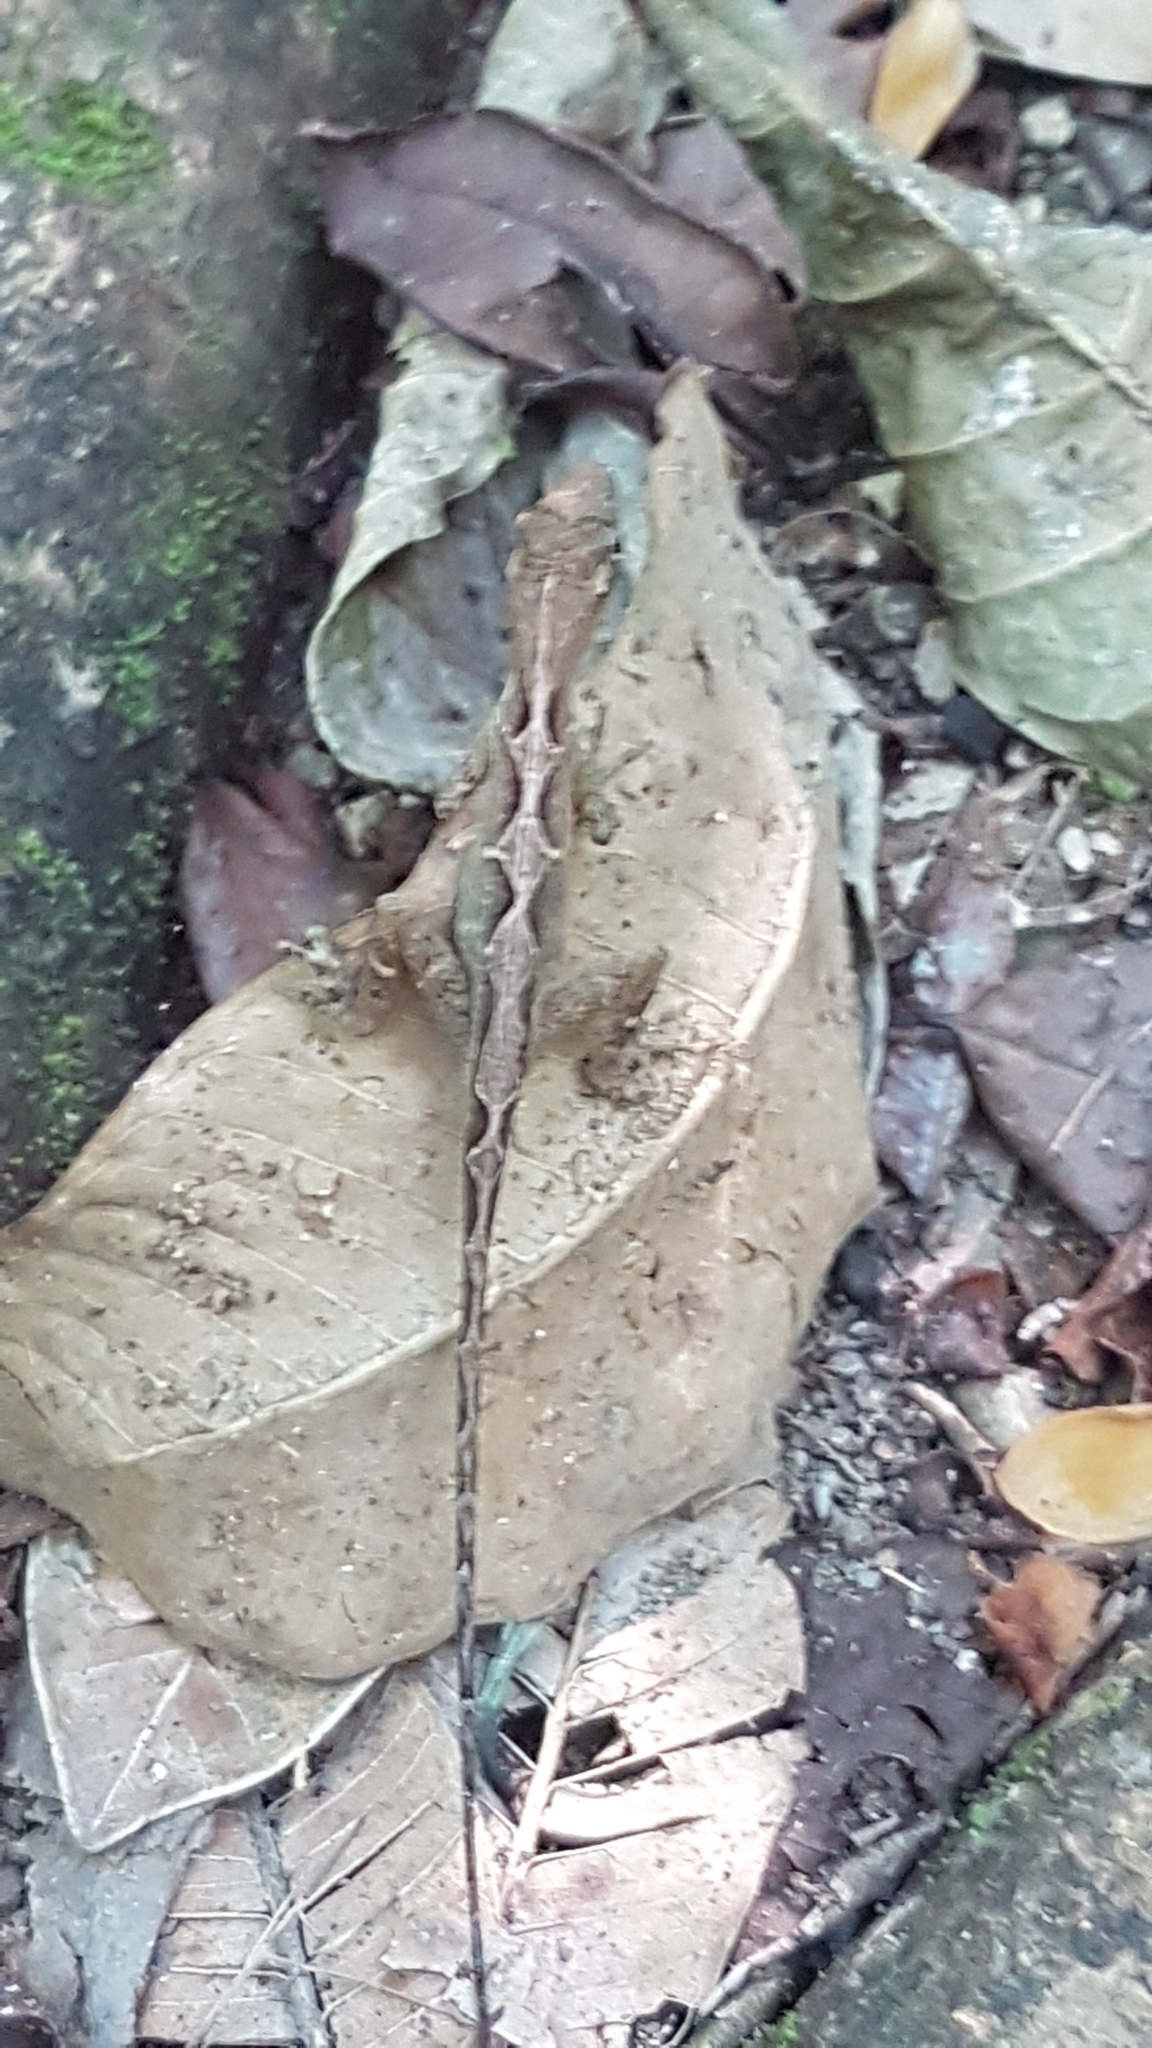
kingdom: Animalia
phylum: Chordata
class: Squamata
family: Dactyloidae
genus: Anolis
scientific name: Anolis osa
